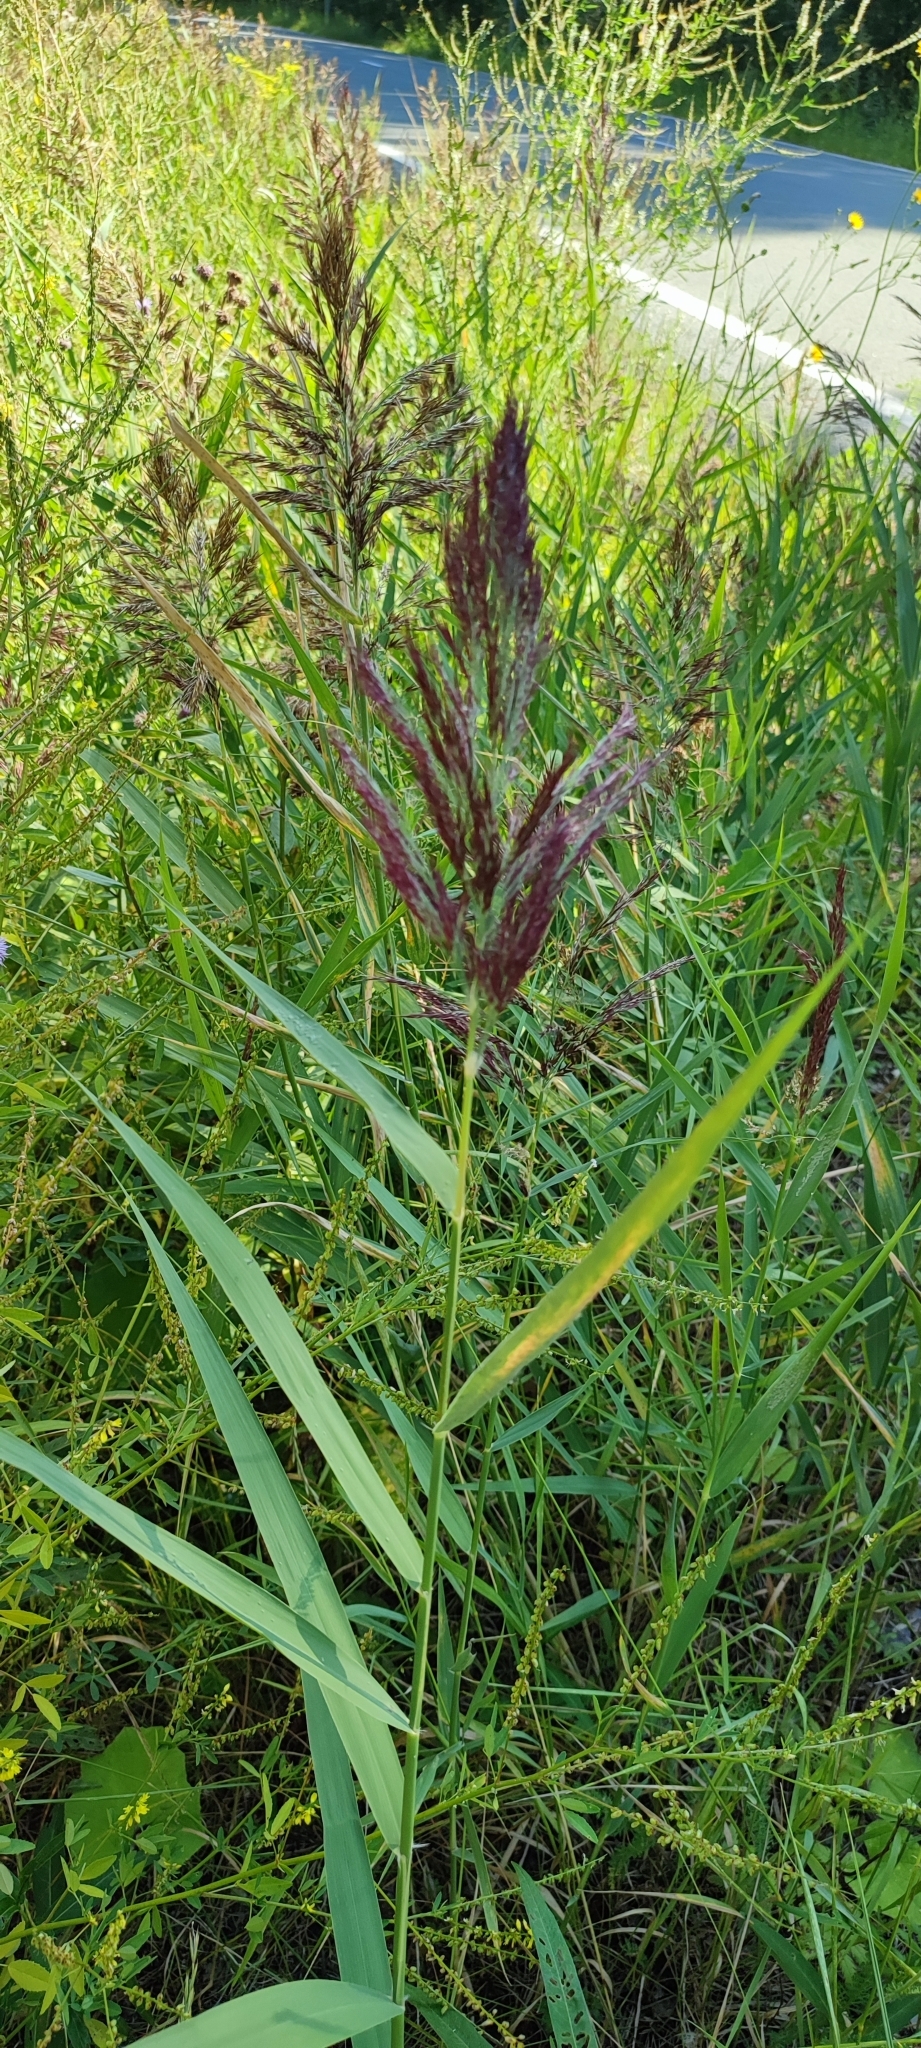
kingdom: Plantae
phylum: Tracheophyta
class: Liliopsida
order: Poales
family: Poaceae
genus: Phragmites
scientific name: Phragmites australis
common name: Common reed
